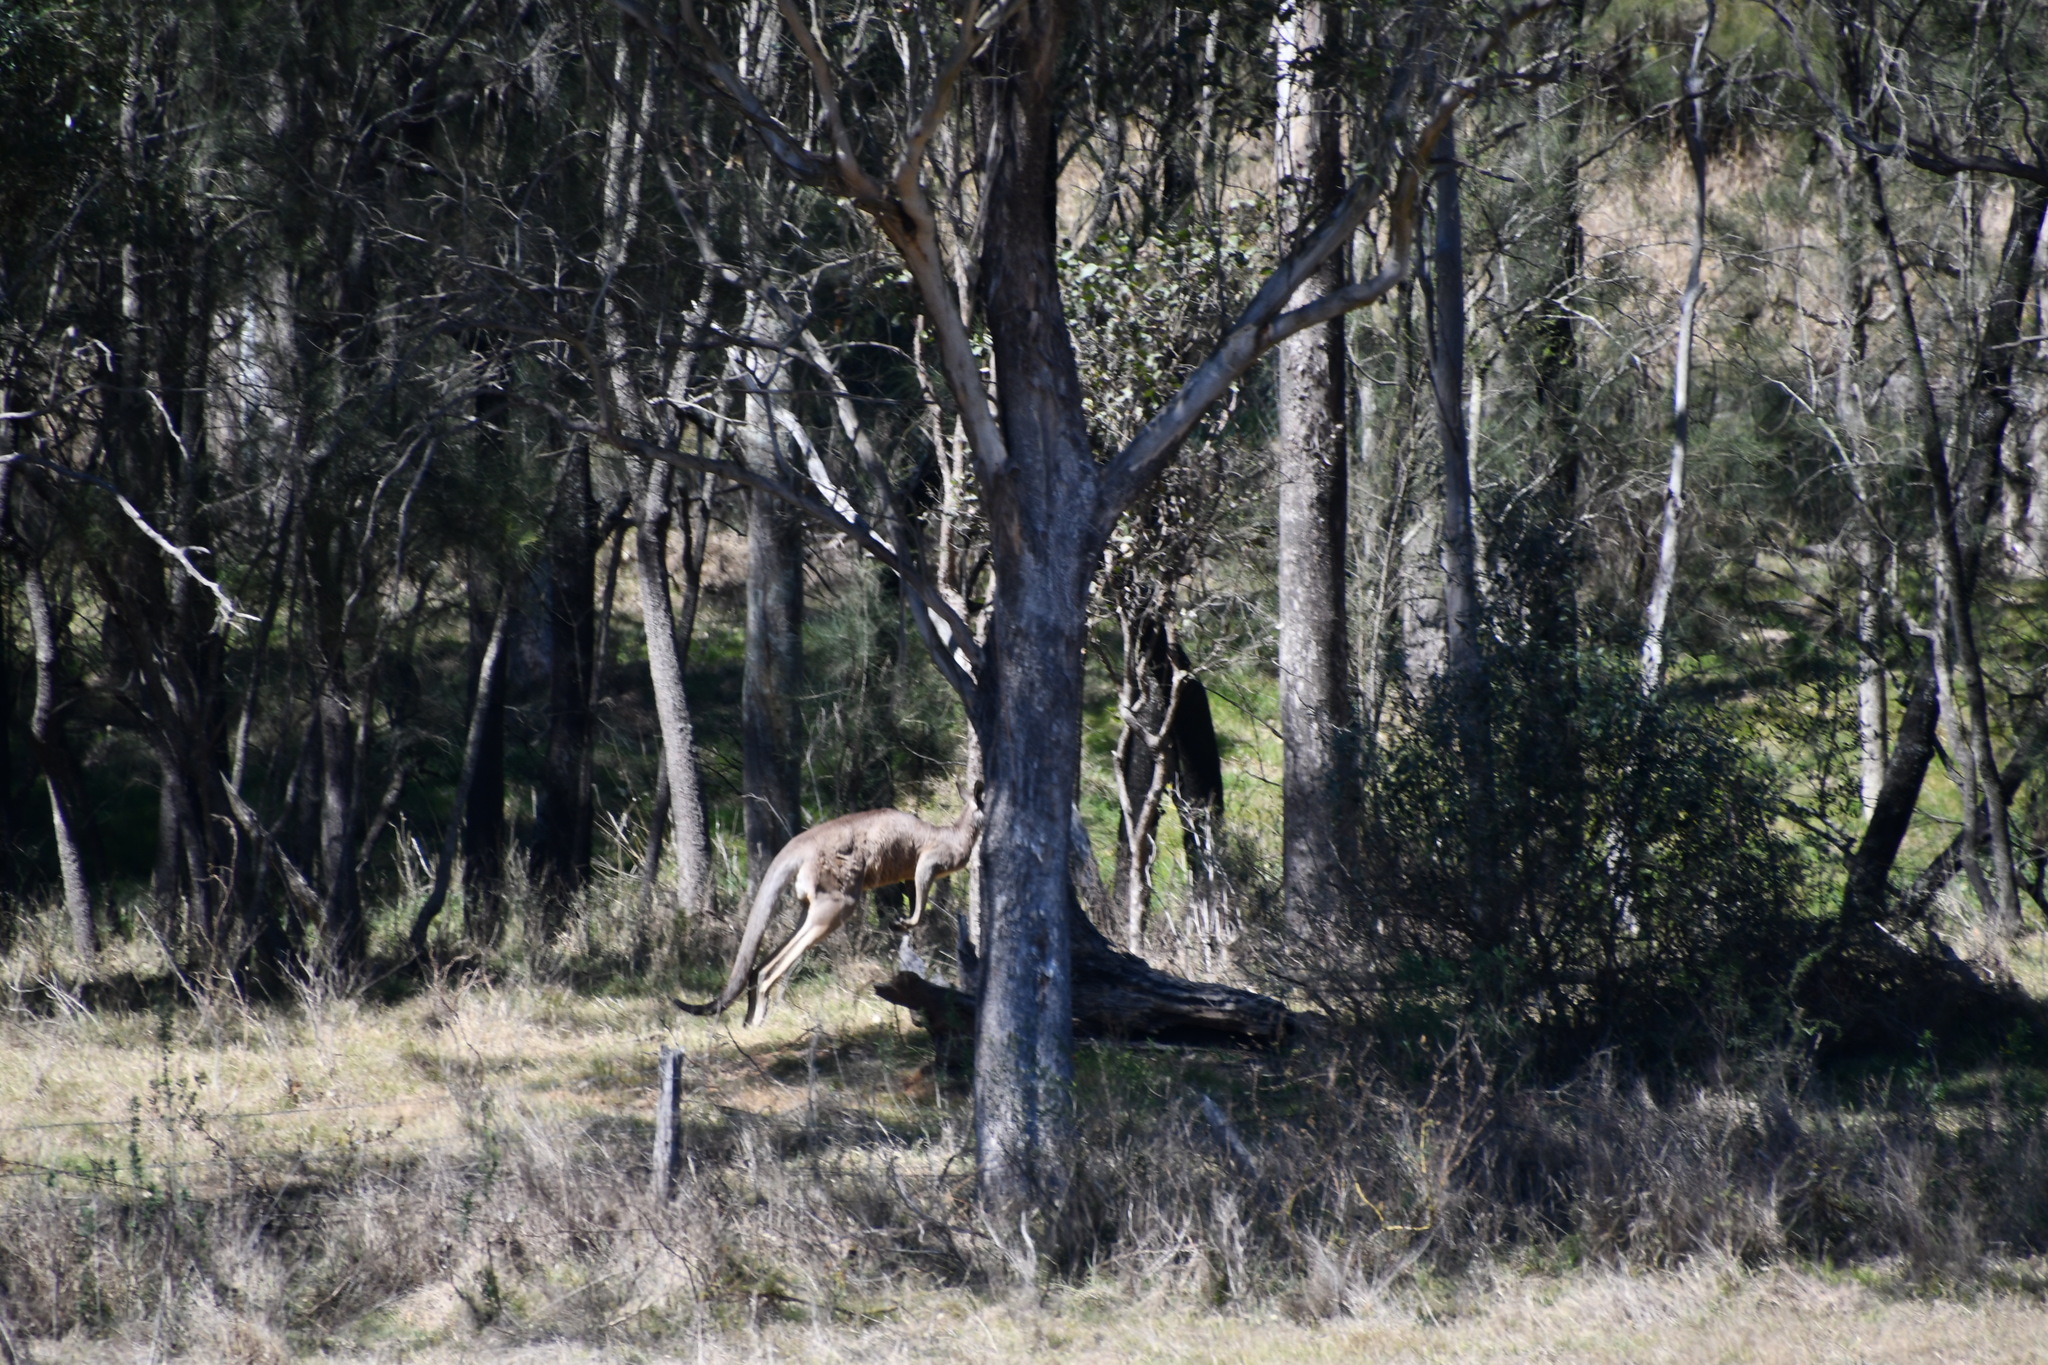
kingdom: Animalia
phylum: Chordata
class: Mammalia
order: Diprotodontia
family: Macropodidae
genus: Macropus
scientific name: Macropus giganteus
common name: Eastern grey kangaroo
